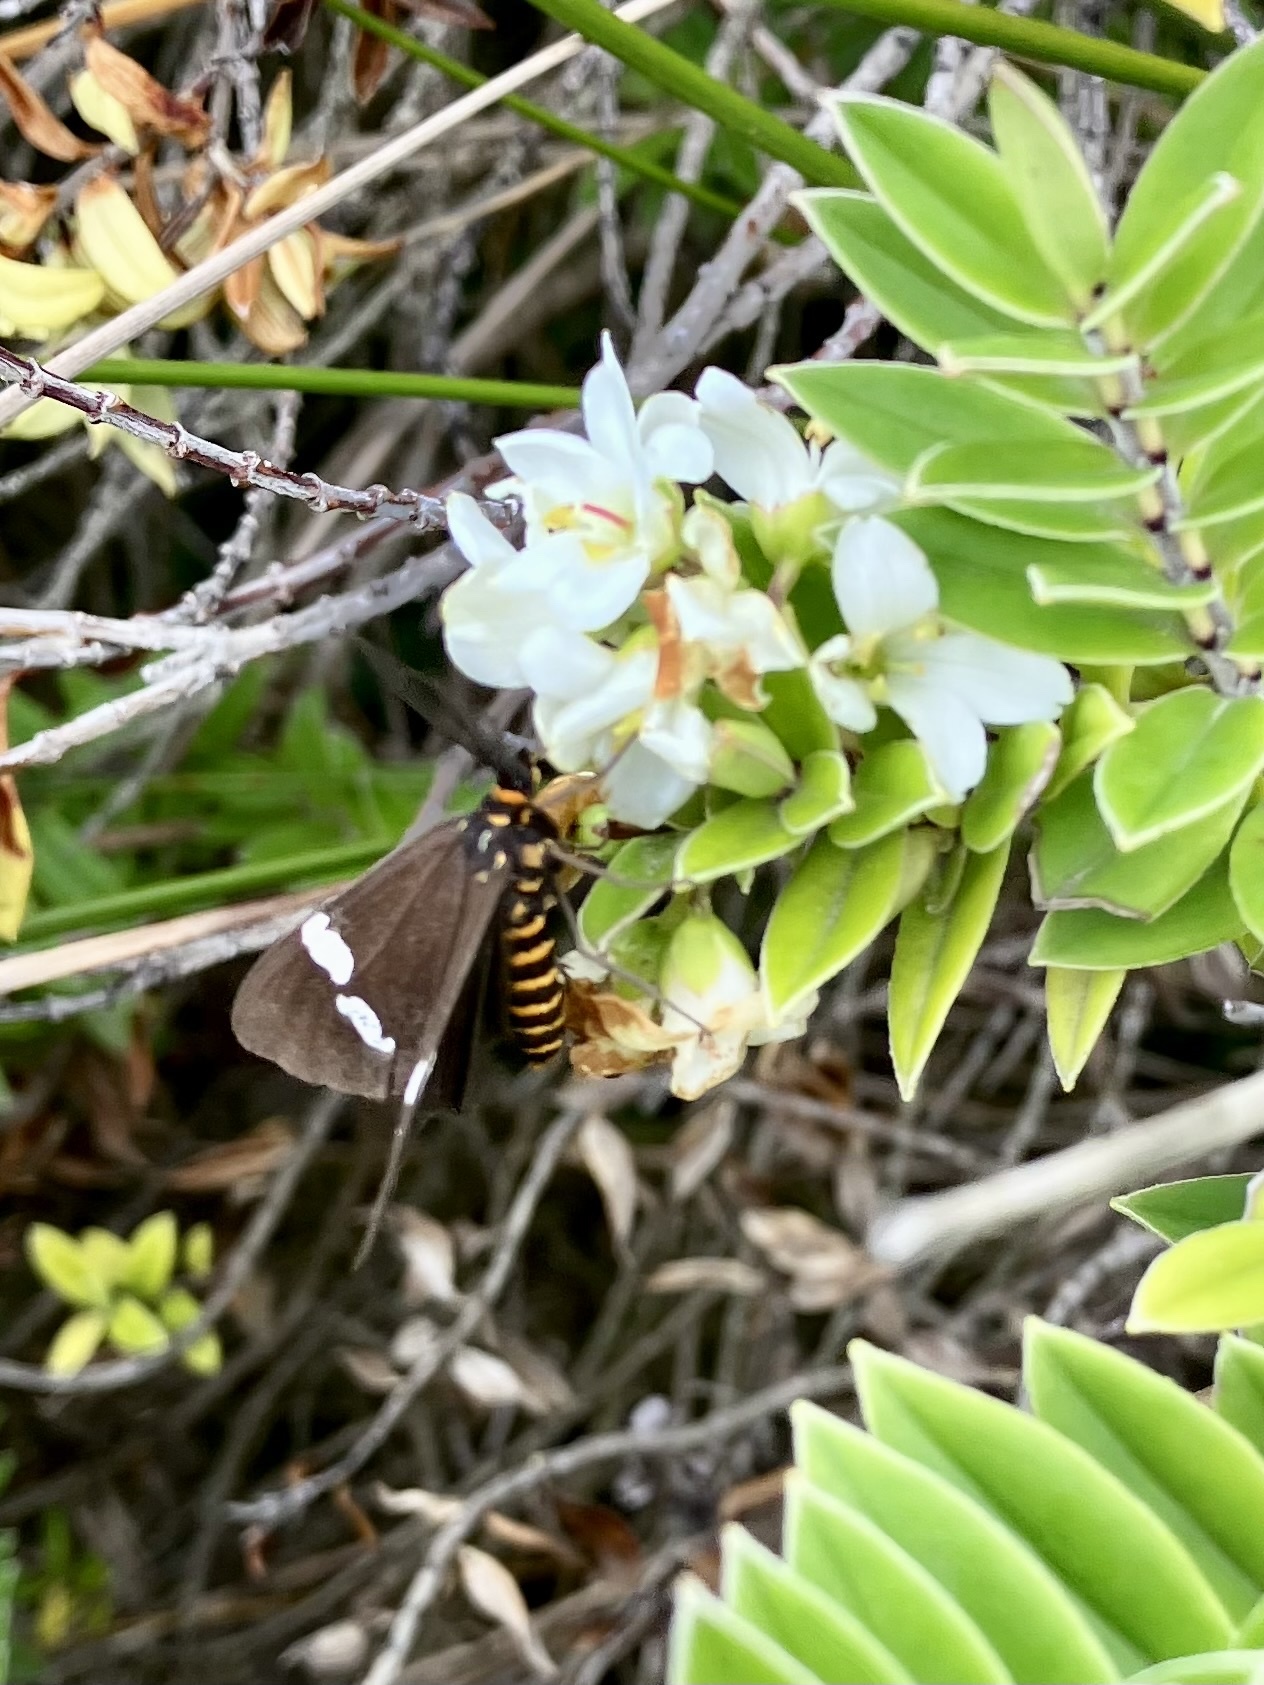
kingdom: Animalia
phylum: Arthropoda
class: Insecta
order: Lepidoptera
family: Erebidae
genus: Nyctemera
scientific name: Nyctemera annulatum
